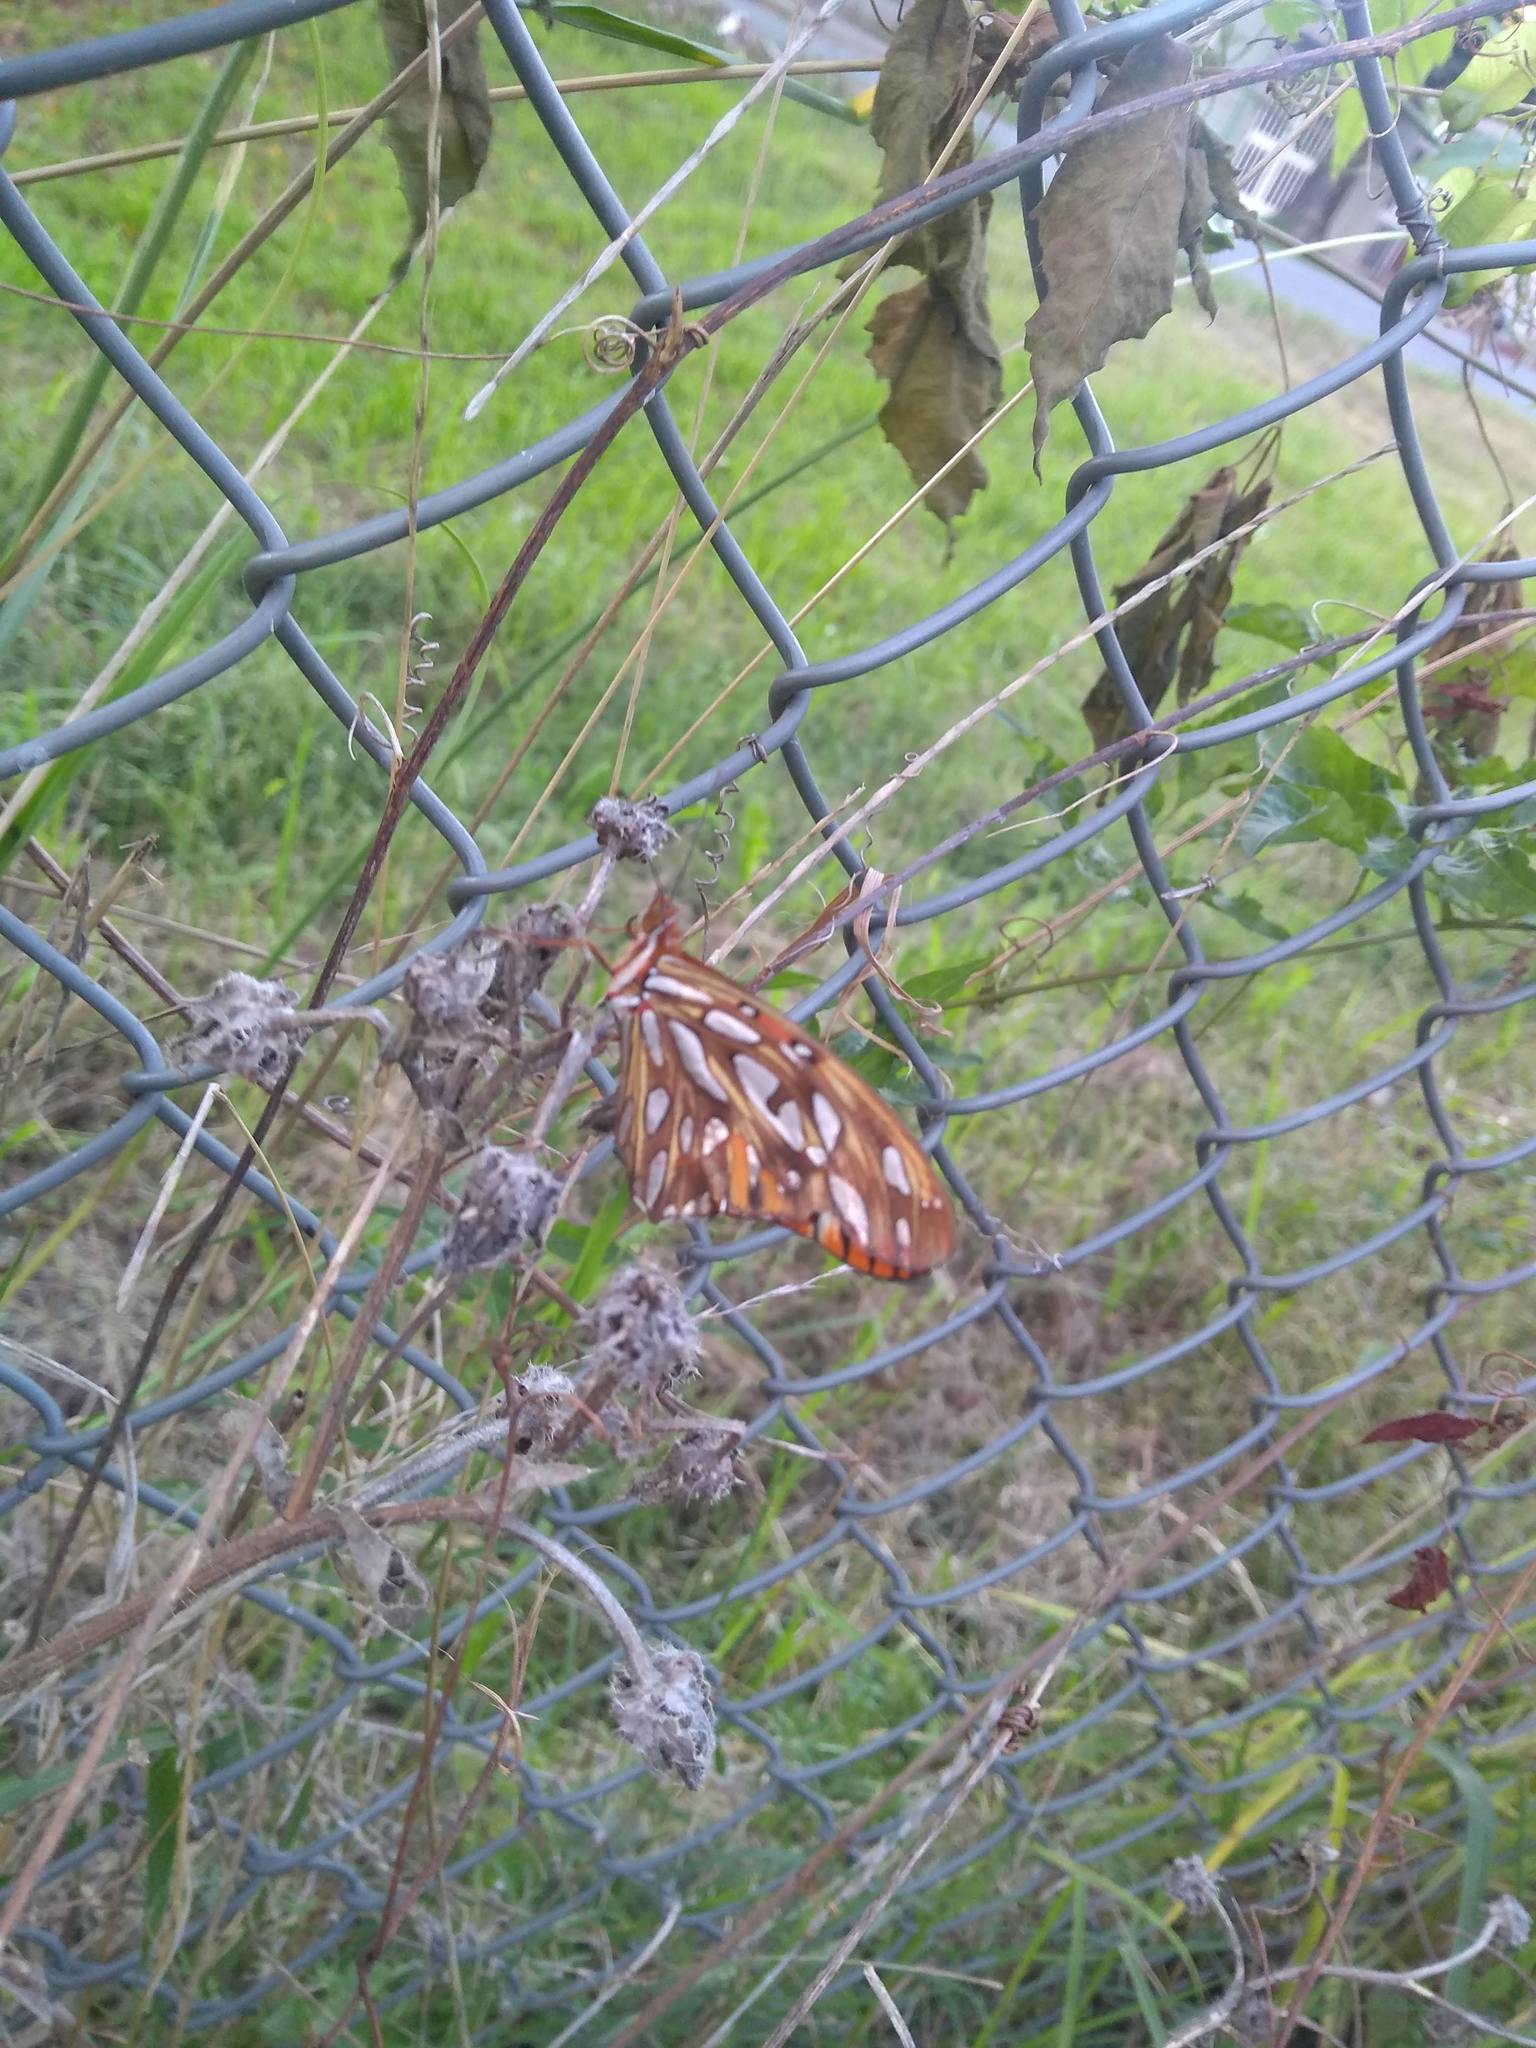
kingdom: Animalia
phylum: Arthropoda
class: Insecta
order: Lepidoptera
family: Nymphalidae
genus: Dione
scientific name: Dione vanillae
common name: Gulf fritillary
